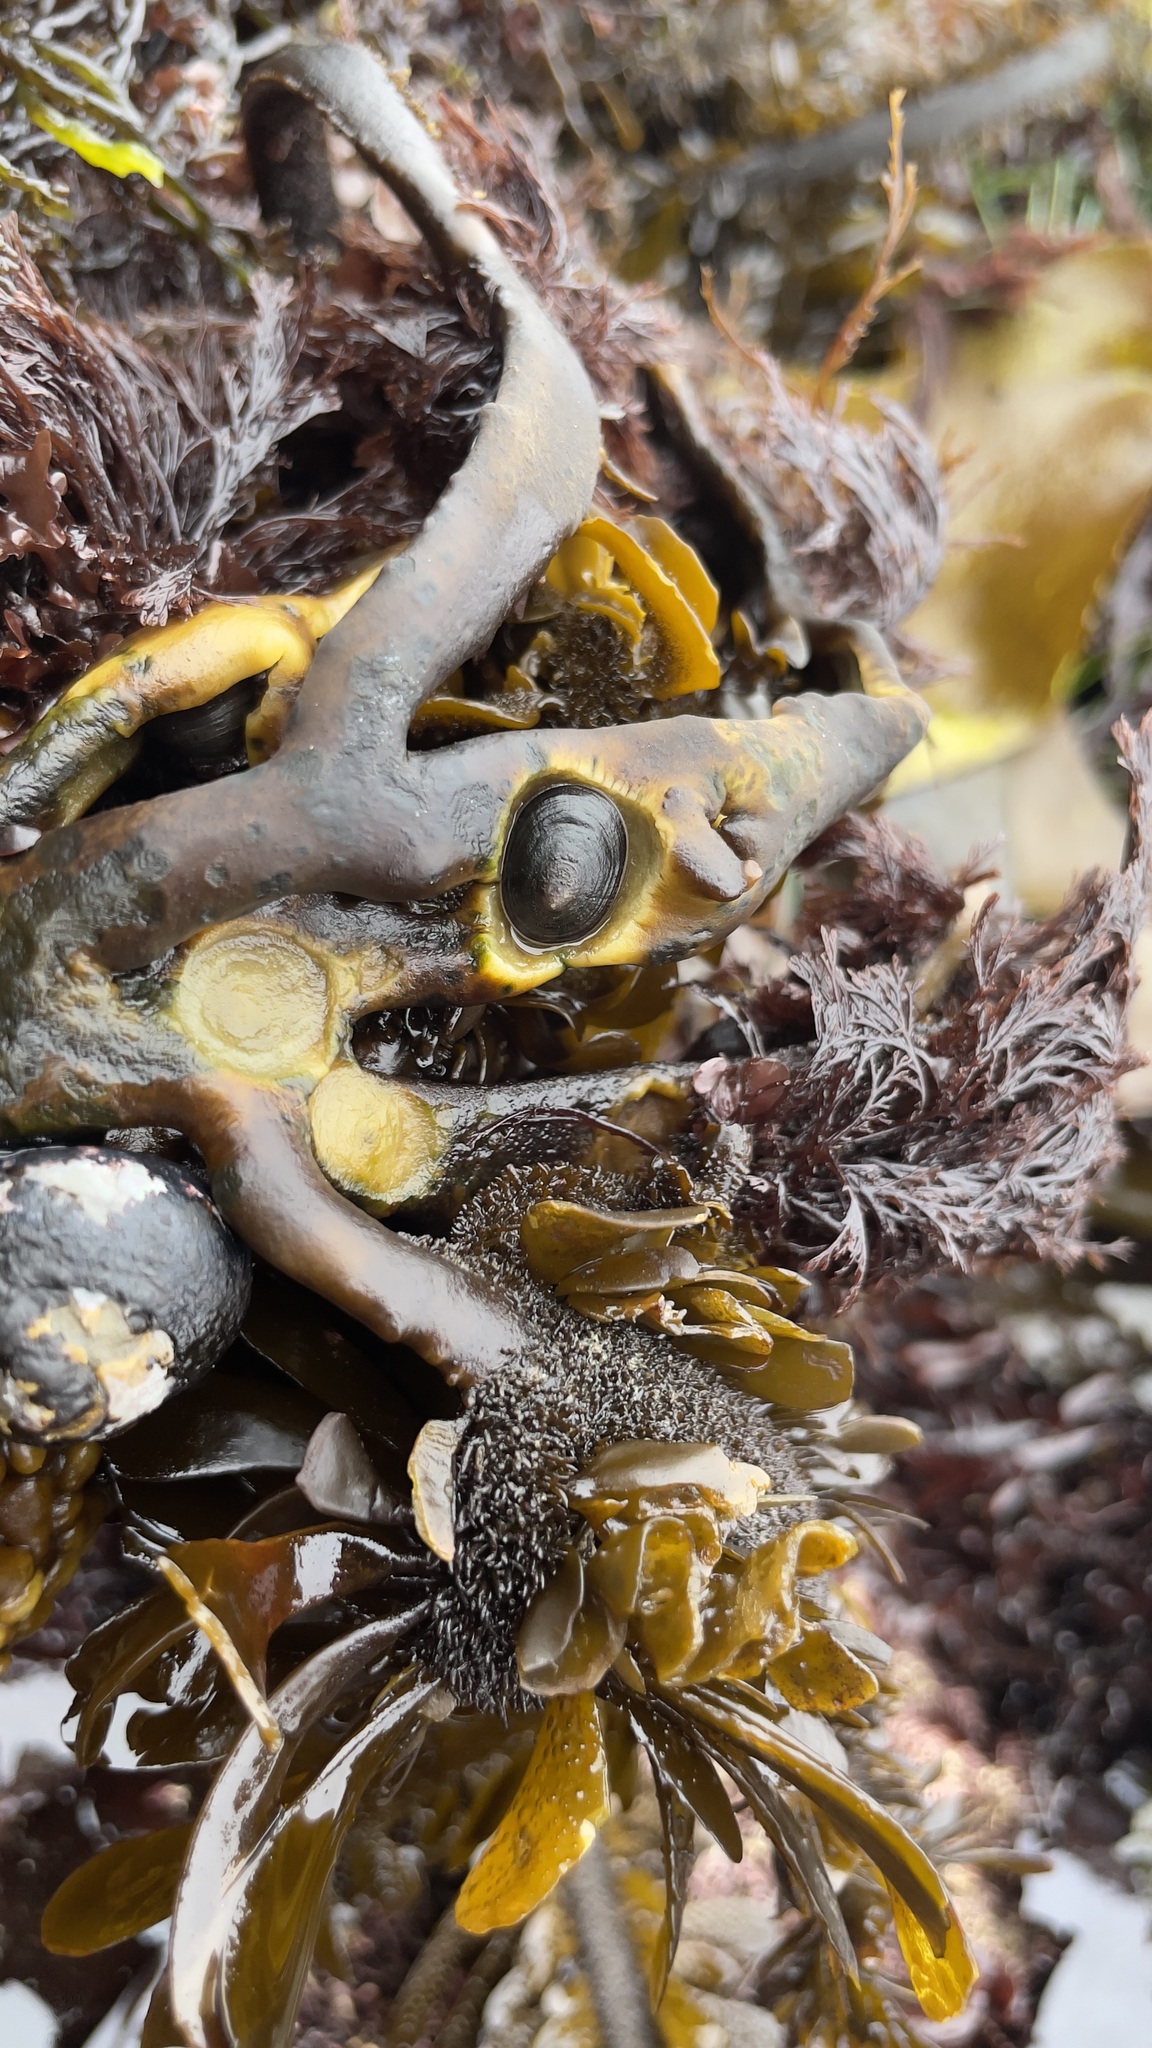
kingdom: Animalia
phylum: Mollusca
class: Gastropoda
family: Lottiidae
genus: Discurria
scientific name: Discurria insessa
